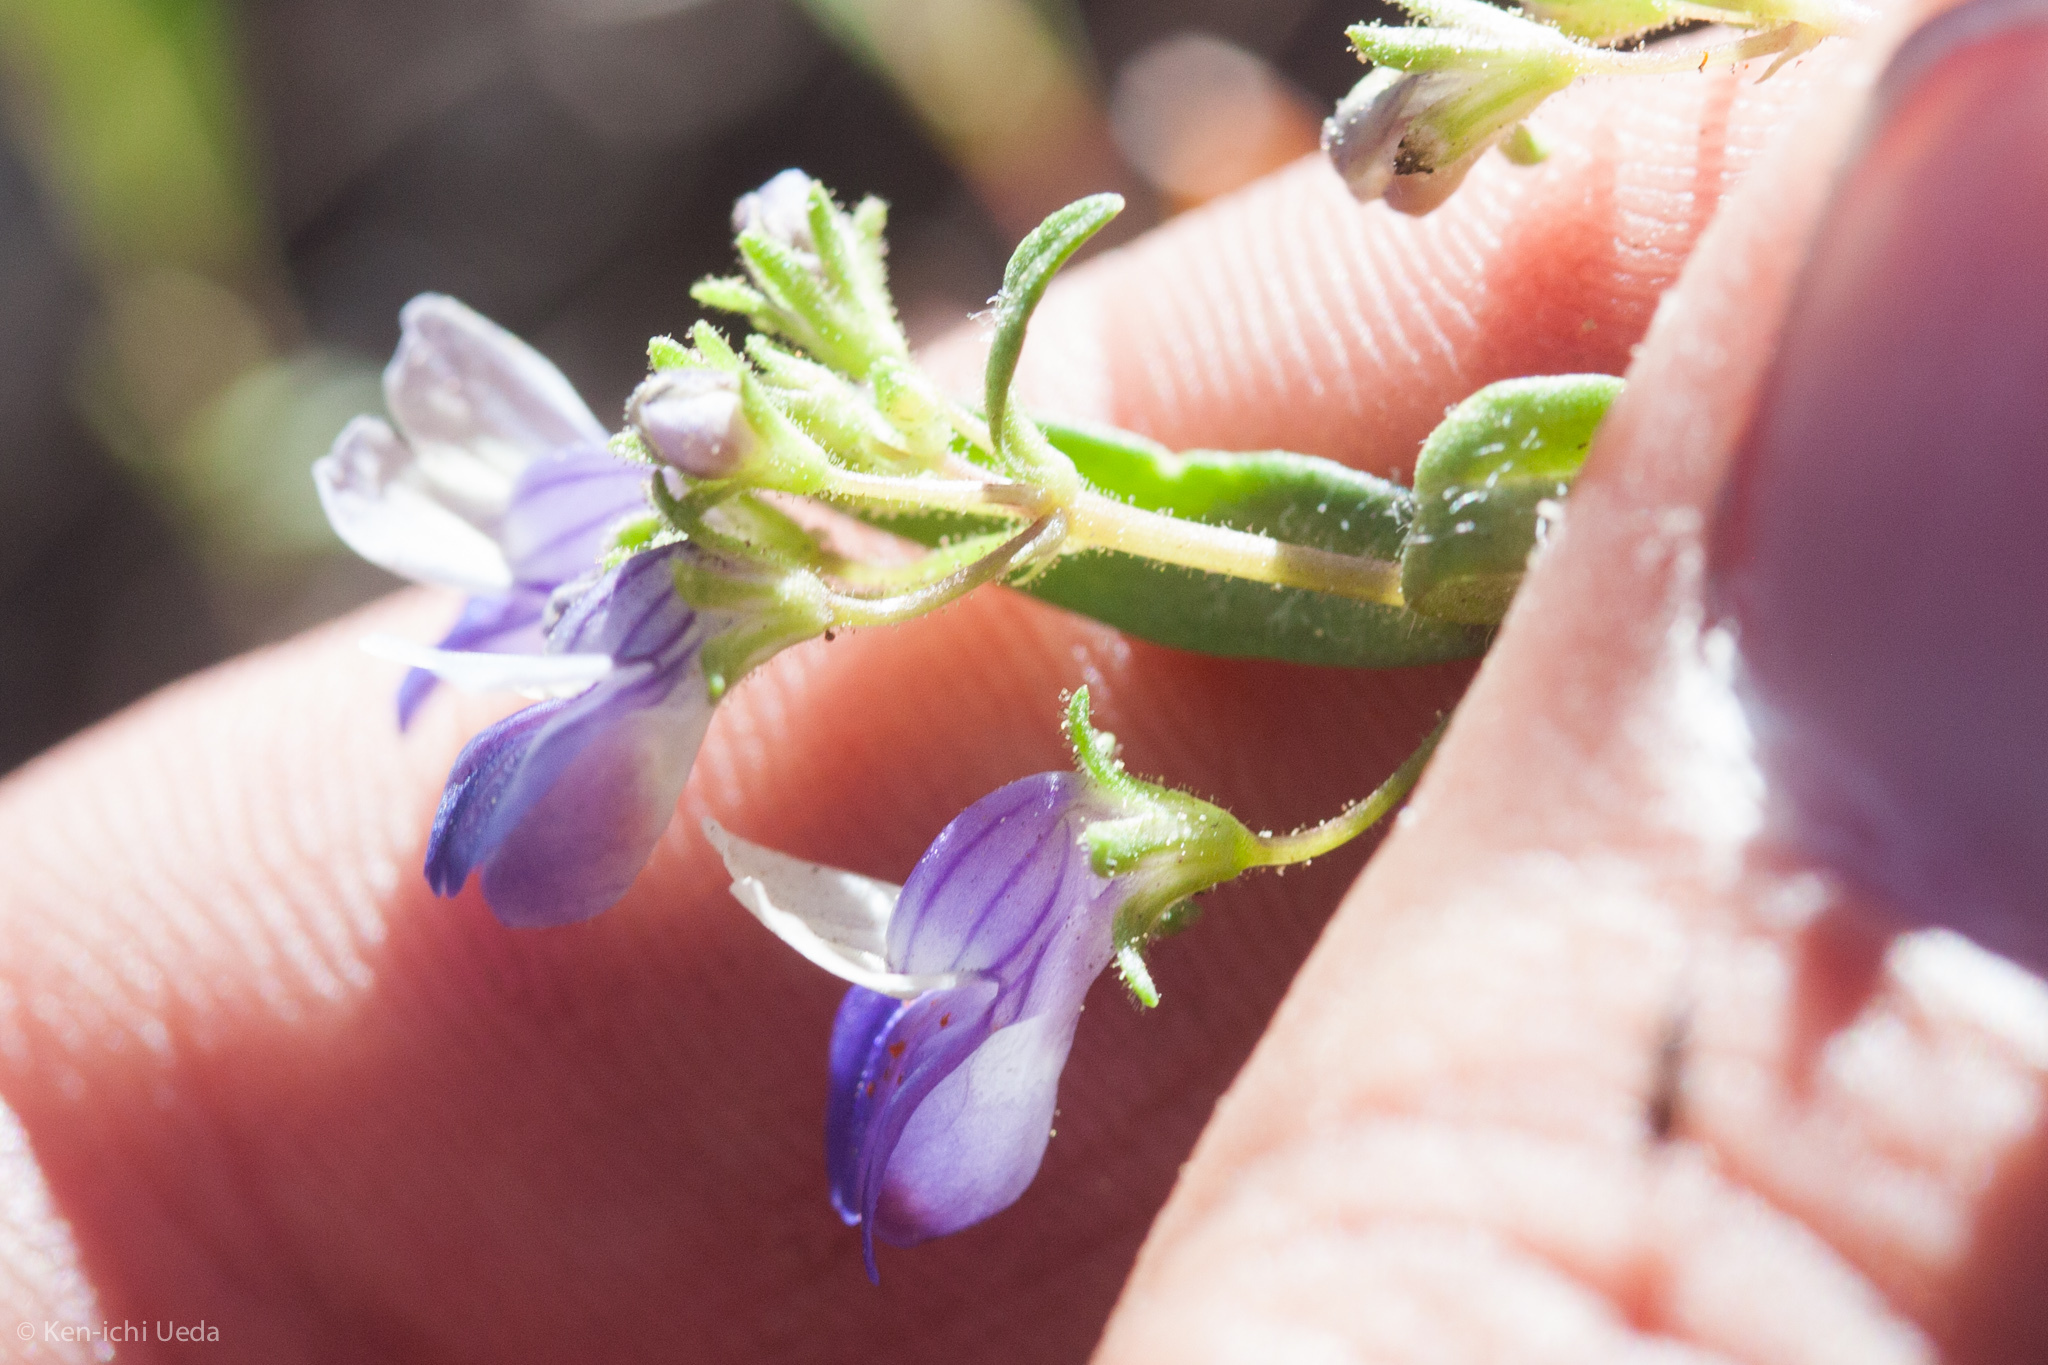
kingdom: Plantae
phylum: Tracheophyta
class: Magnoliopsida
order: Lamiales
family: Plantaginaceae
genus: Collinsia
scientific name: Collinsia torreyi
